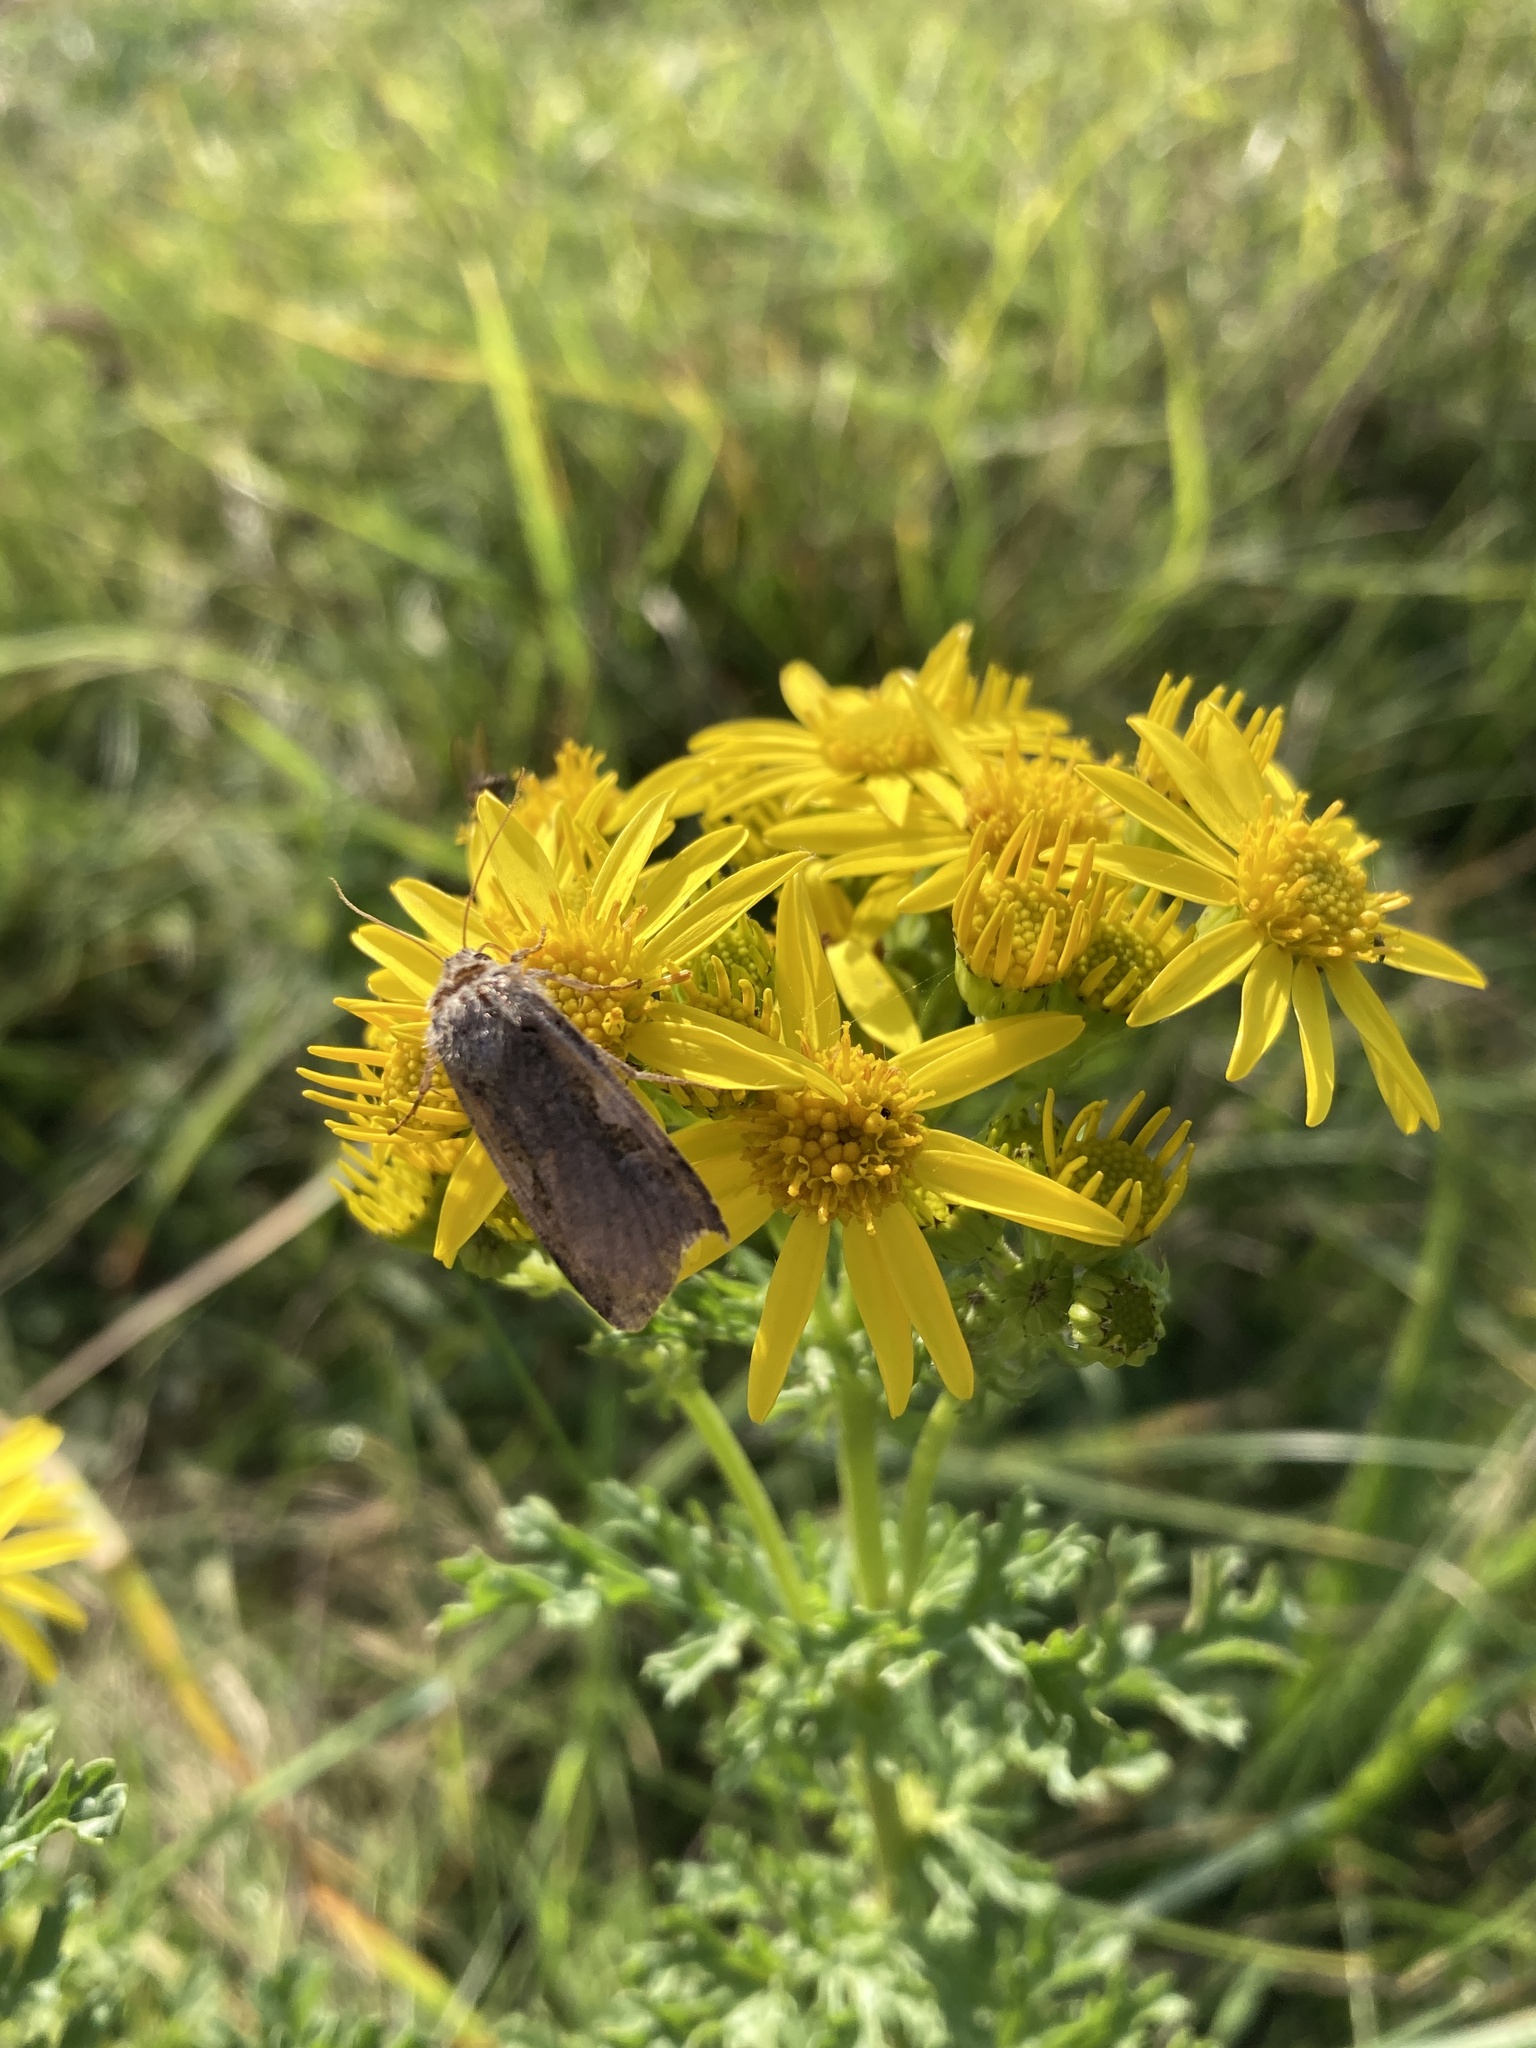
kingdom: Animalia
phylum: Arthropoda
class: Insecta
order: Lepidoptera
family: Noctuidae
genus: Xestia
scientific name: Xestia c-nigrum
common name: Setaceous hebrew character
